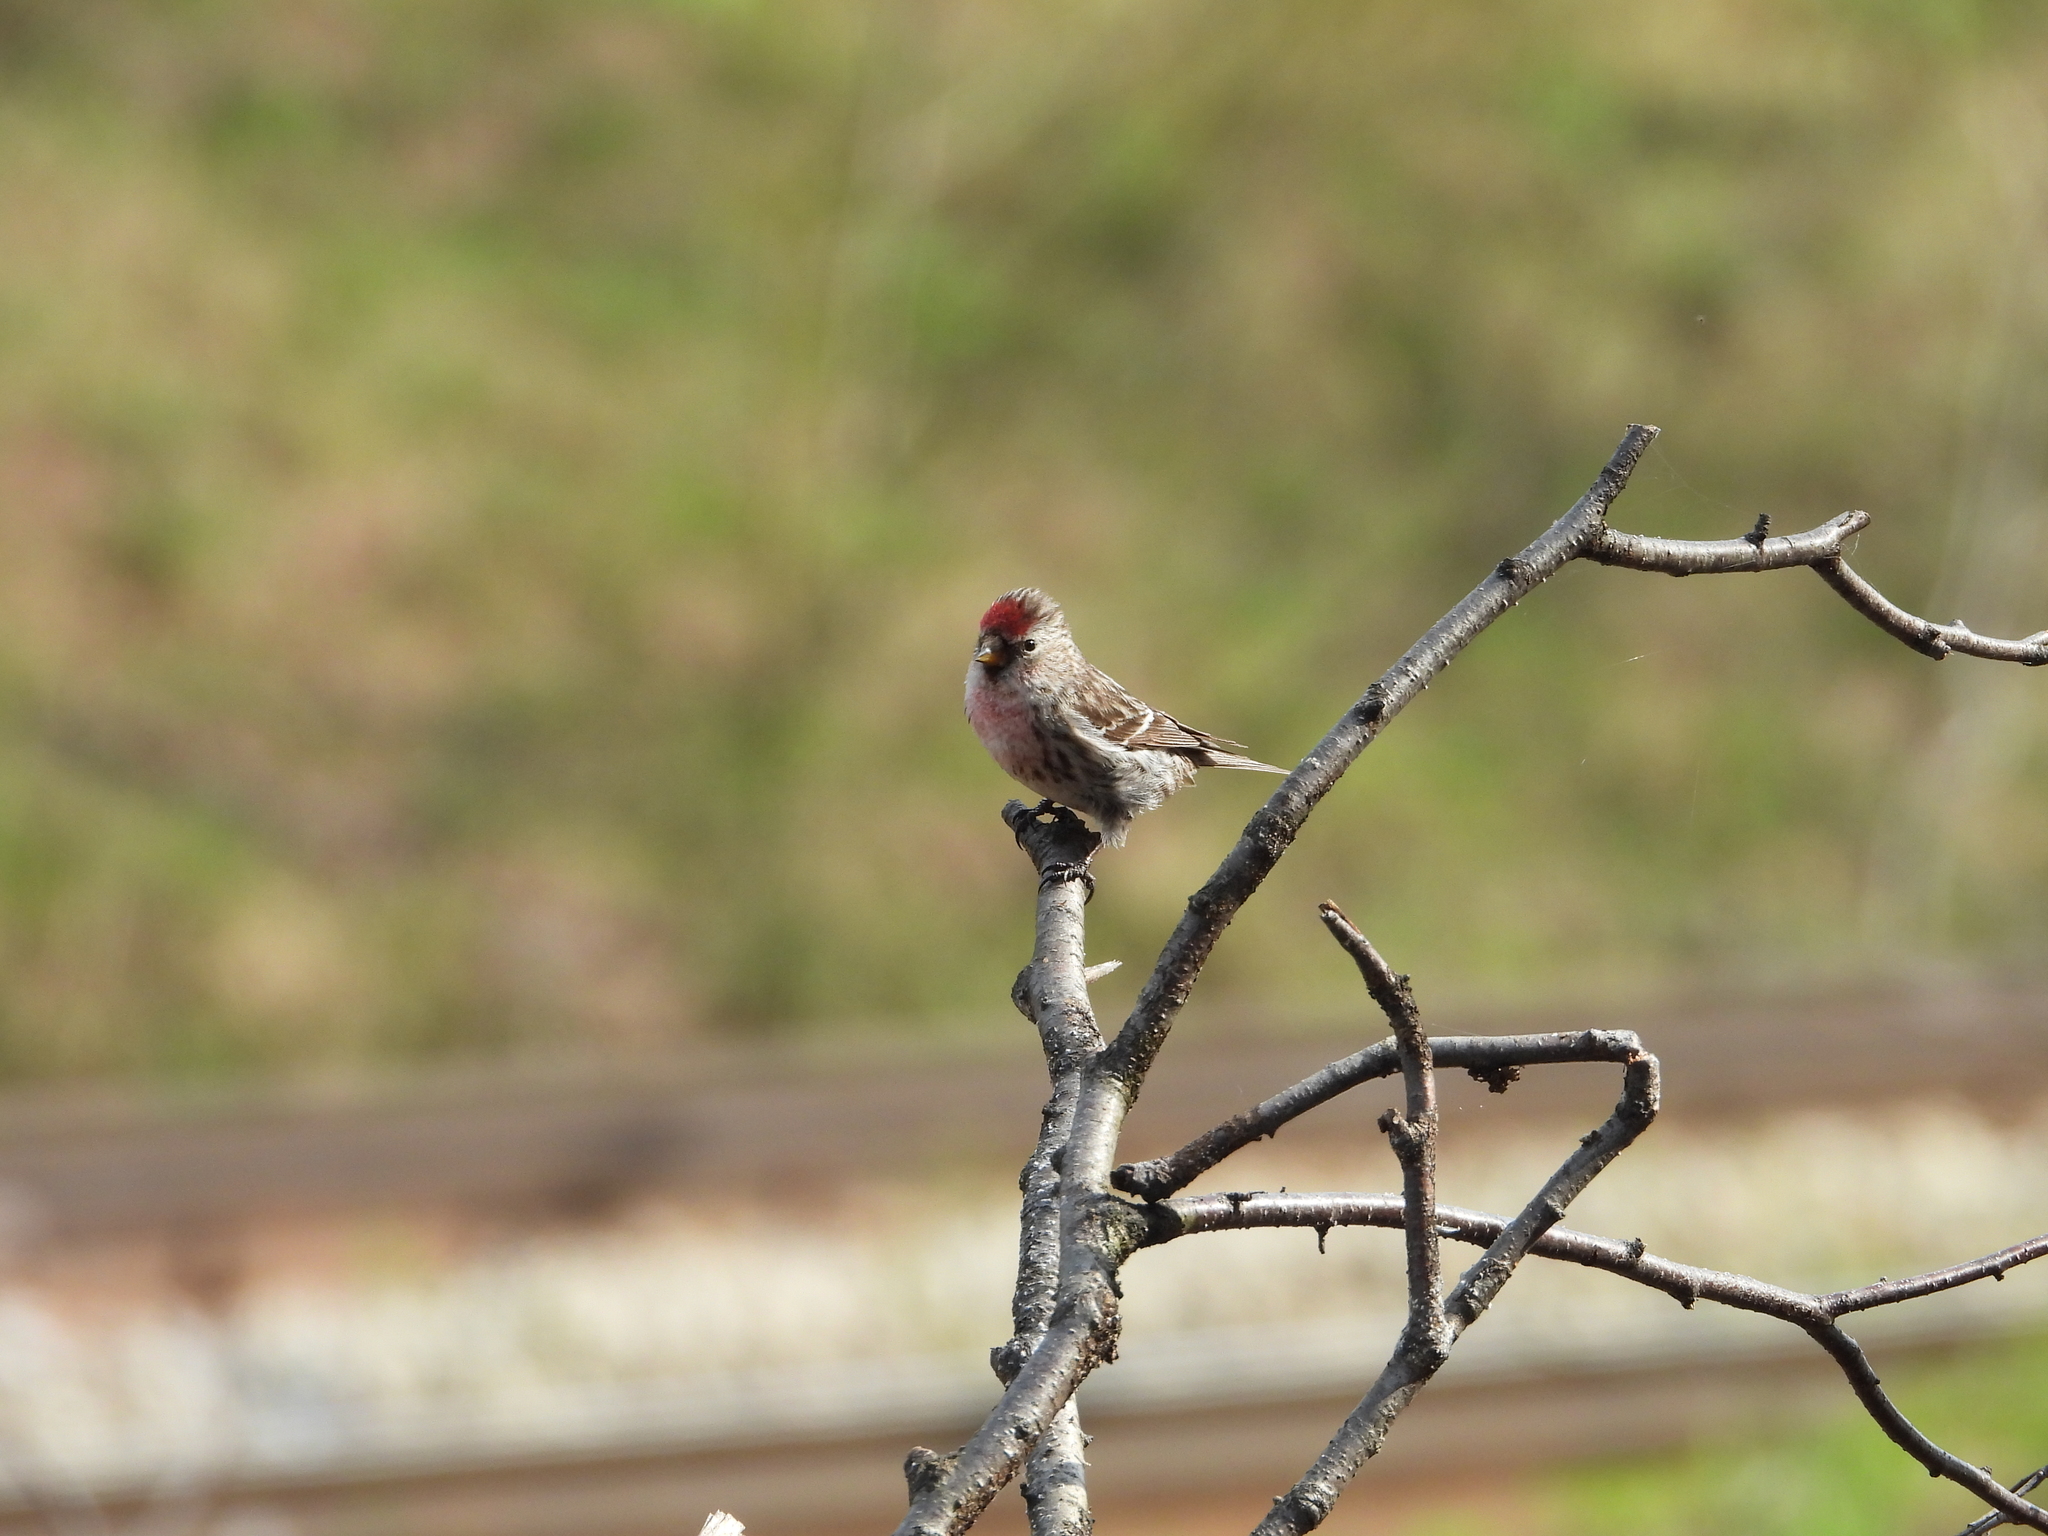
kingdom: Animalia
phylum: Chordata
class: Aves
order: Passeriformes
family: Fringillidae
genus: Acanthis
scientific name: Acanthis flammea
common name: Common redpoll
